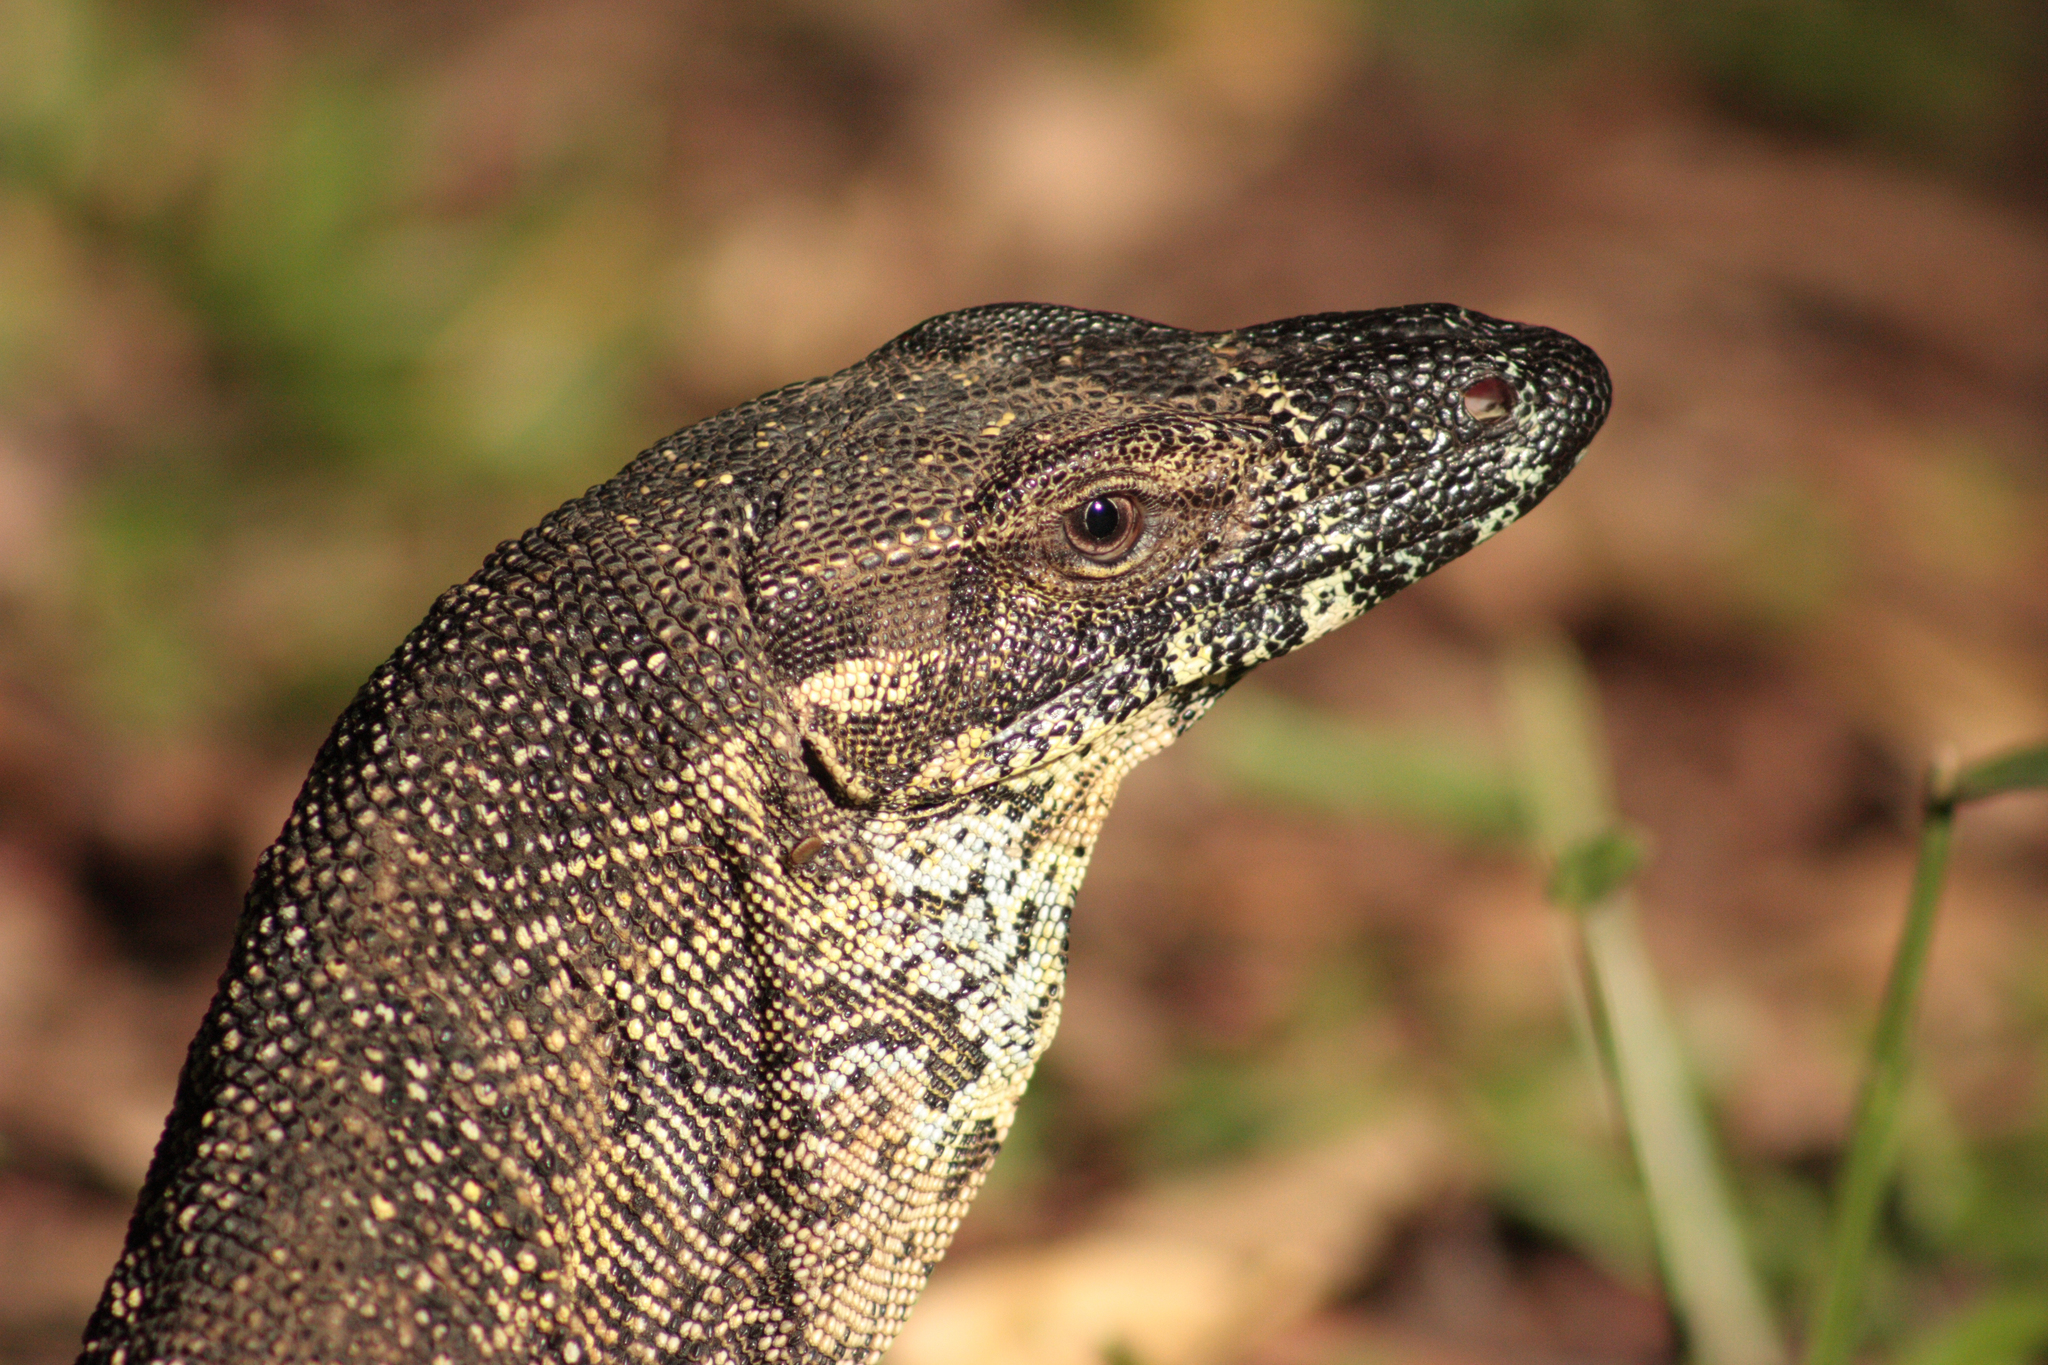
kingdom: Animalia
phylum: Chordata
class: Squamata
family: Varanidae
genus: Varanus
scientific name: Varanus varius
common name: Lace monitor
